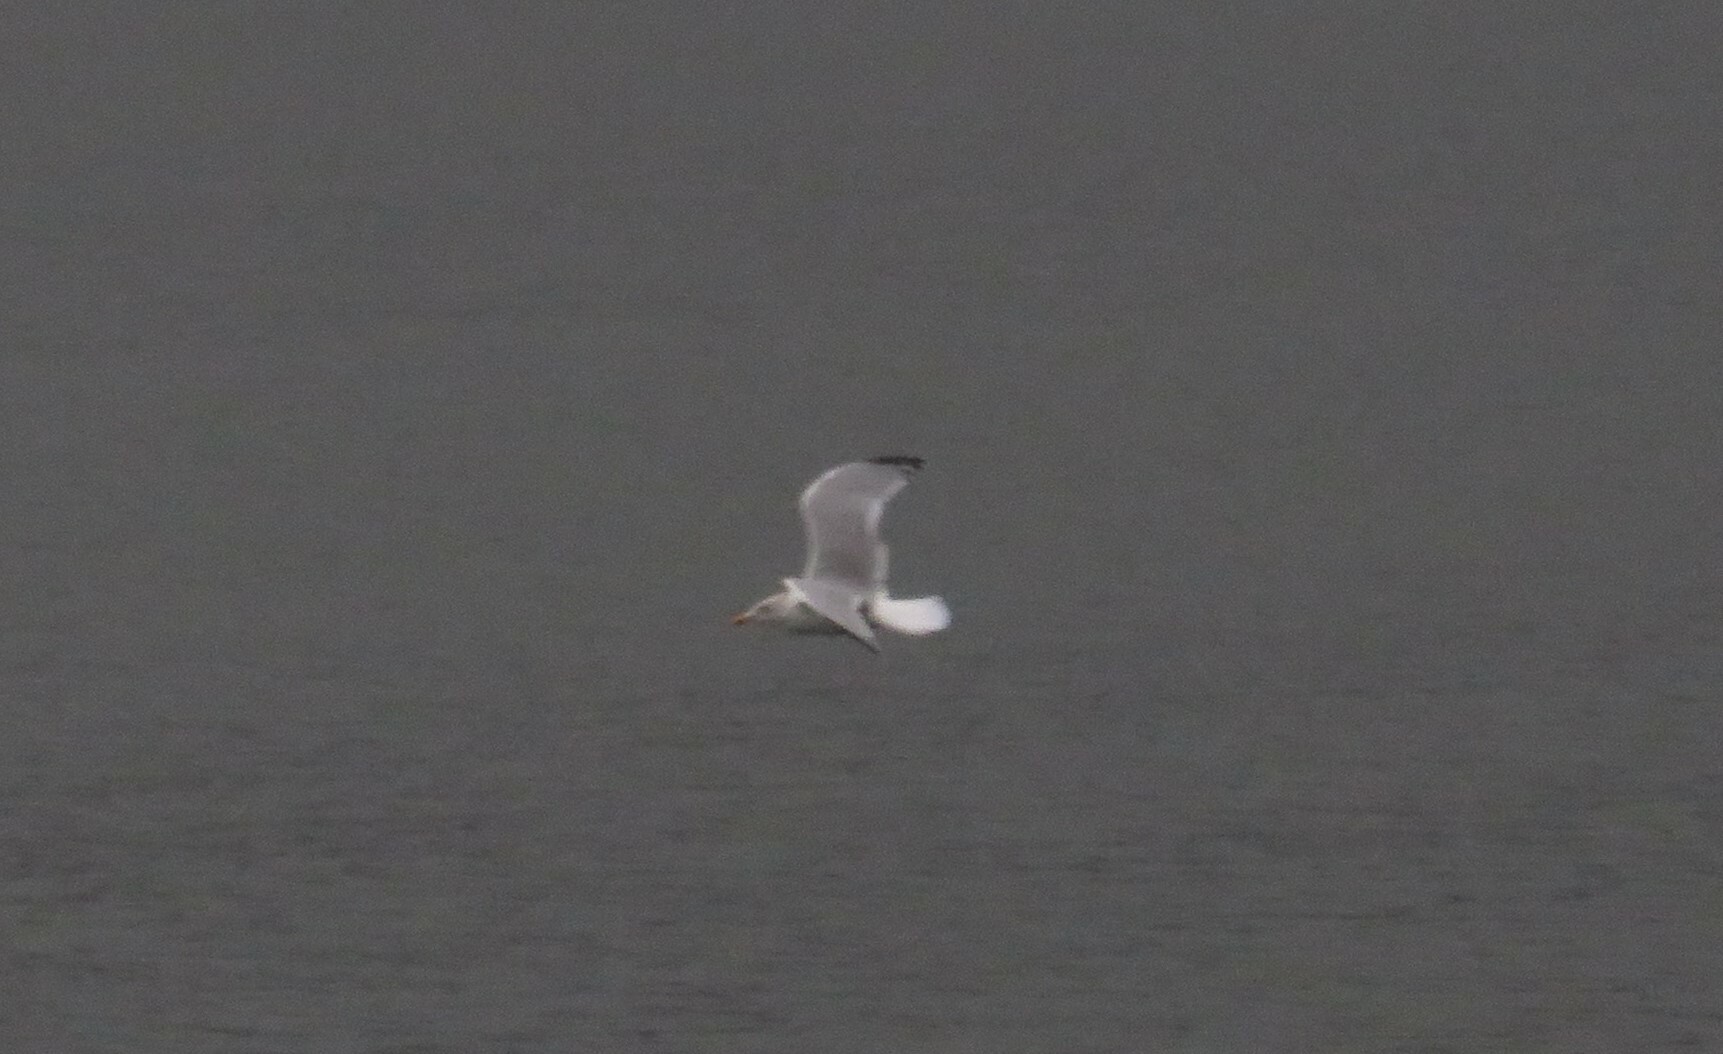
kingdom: Animalia
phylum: Chordata
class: Aves
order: Charadriiformes
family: Laridae
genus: Larus
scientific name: Larus argentatus
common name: Herring gull
